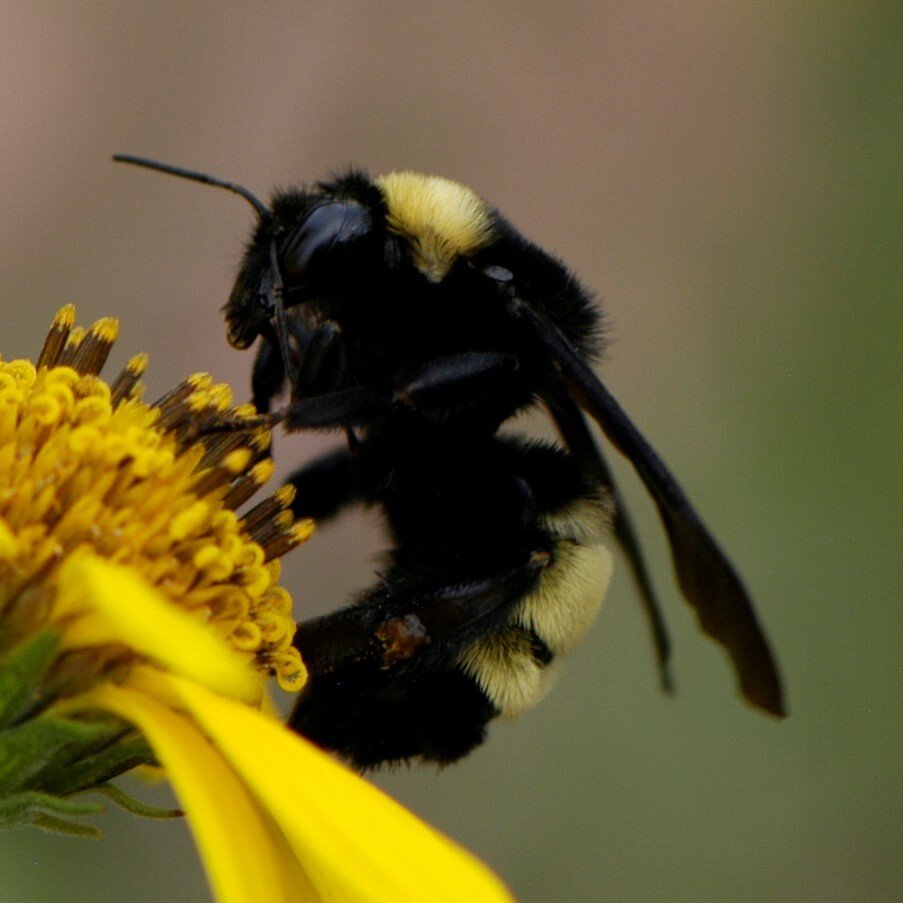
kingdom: Animalia
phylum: Arthropoda
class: Insecta
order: Hymenoptera
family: Apidae
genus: Bombus
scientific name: Bombus pensylvanicus
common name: Bumble bee
